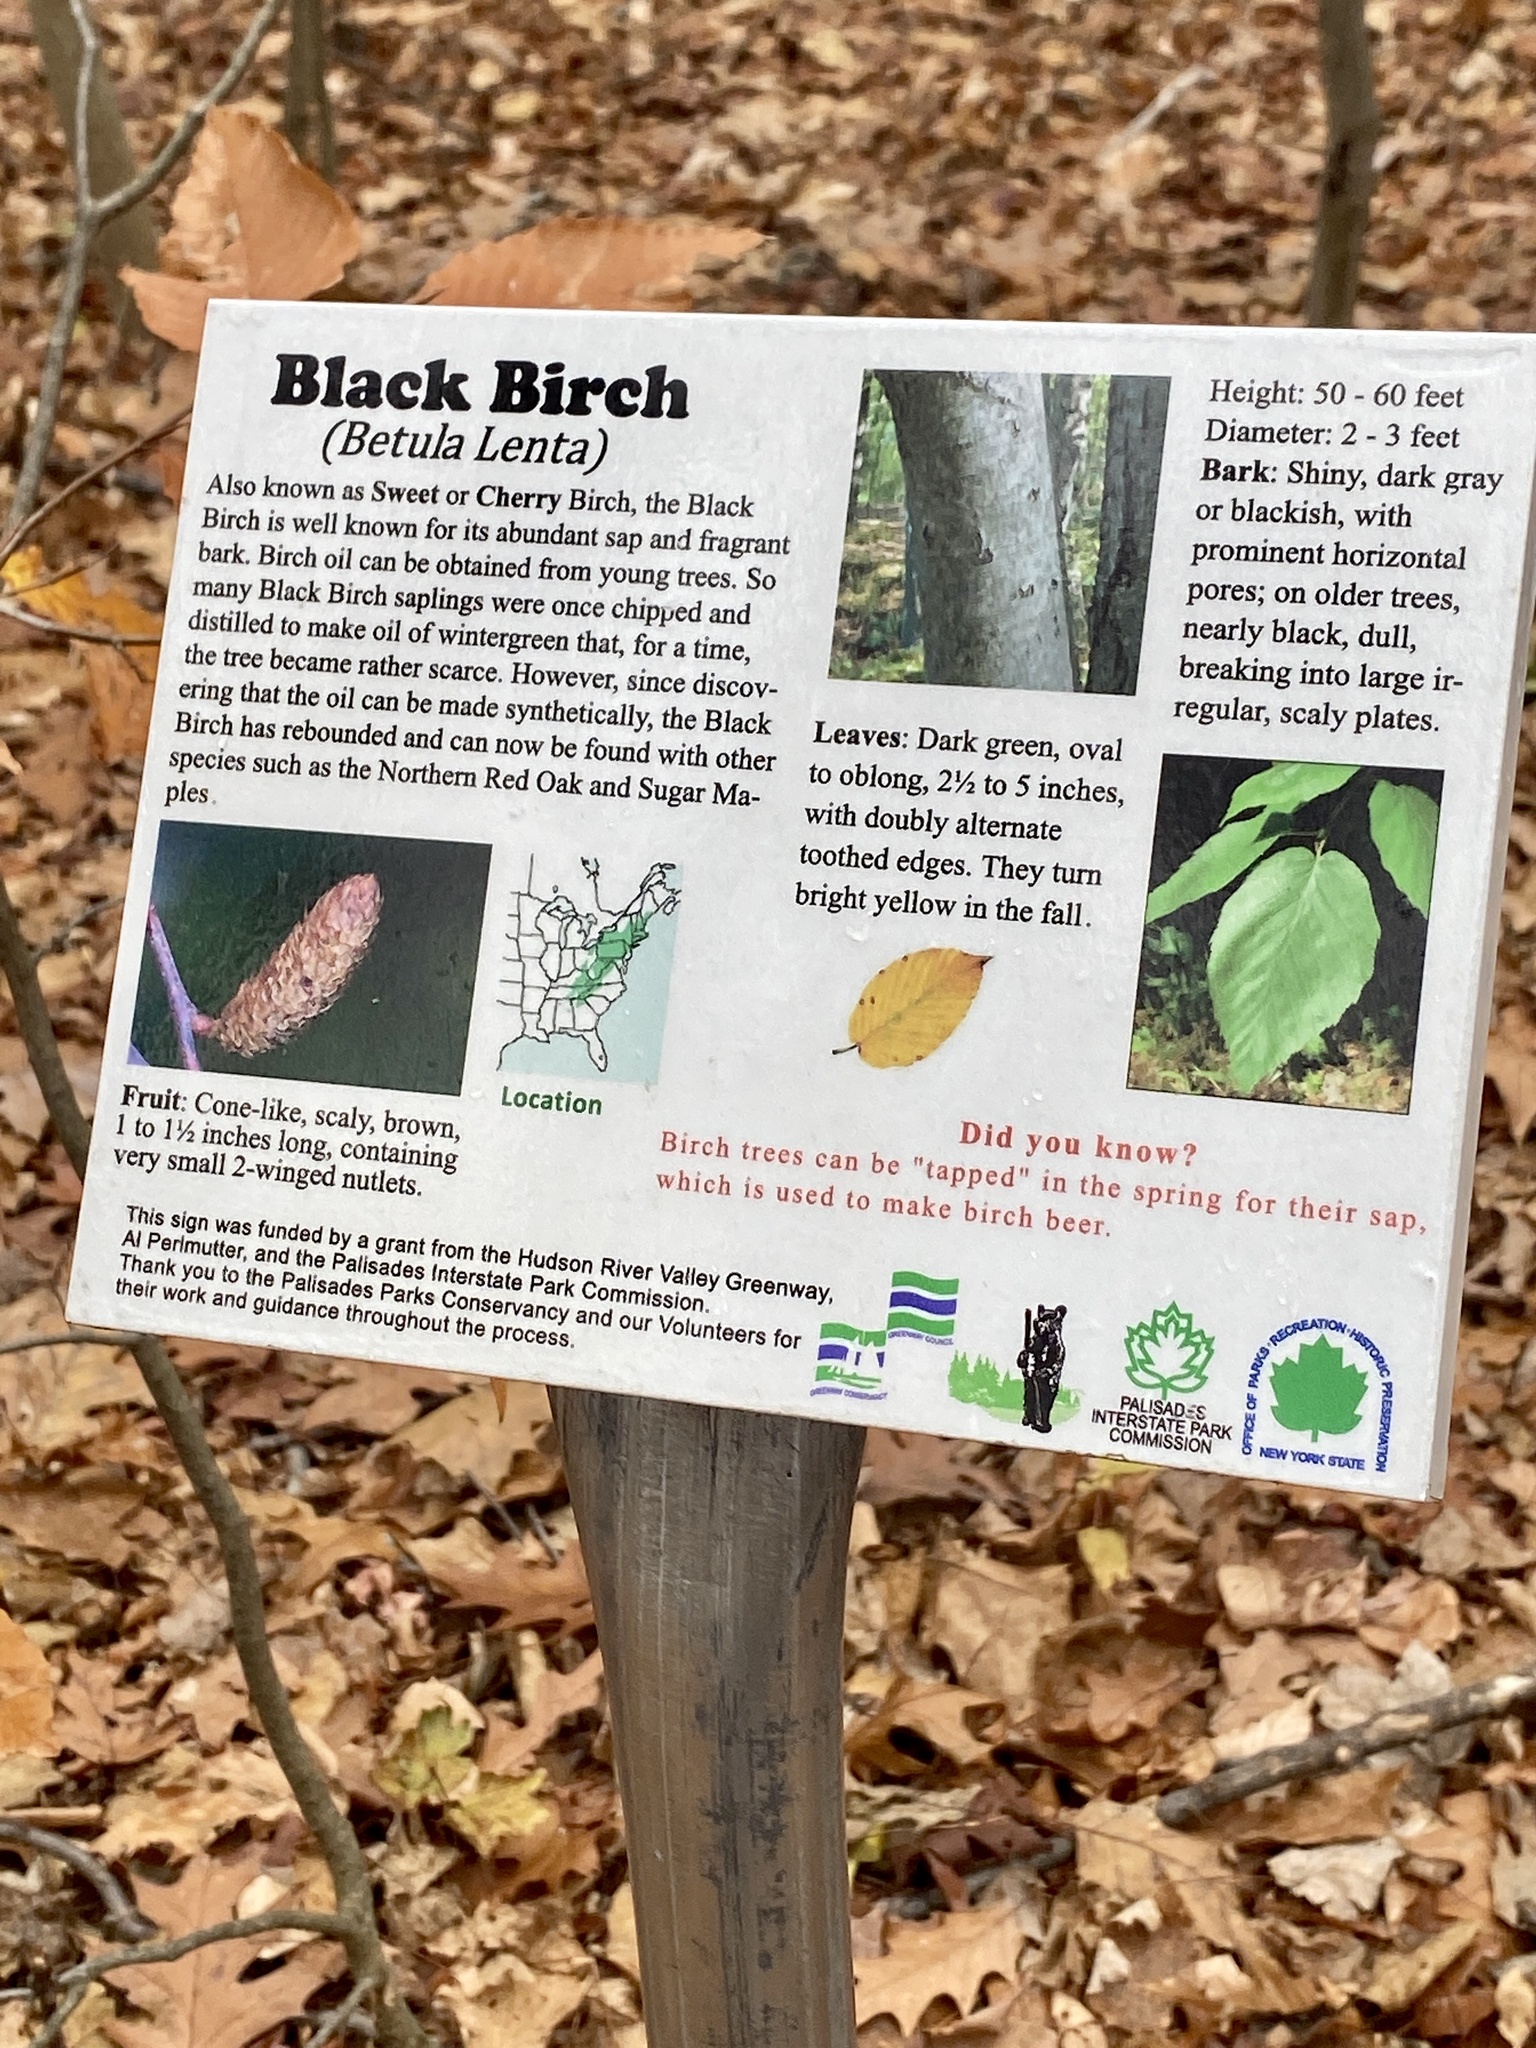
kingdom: Plantae
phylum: Tracheophyta
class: Magnoliopsida
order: Fagales
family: Betulaceae
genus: Betula
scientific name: Betula lenta
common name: Black birch
